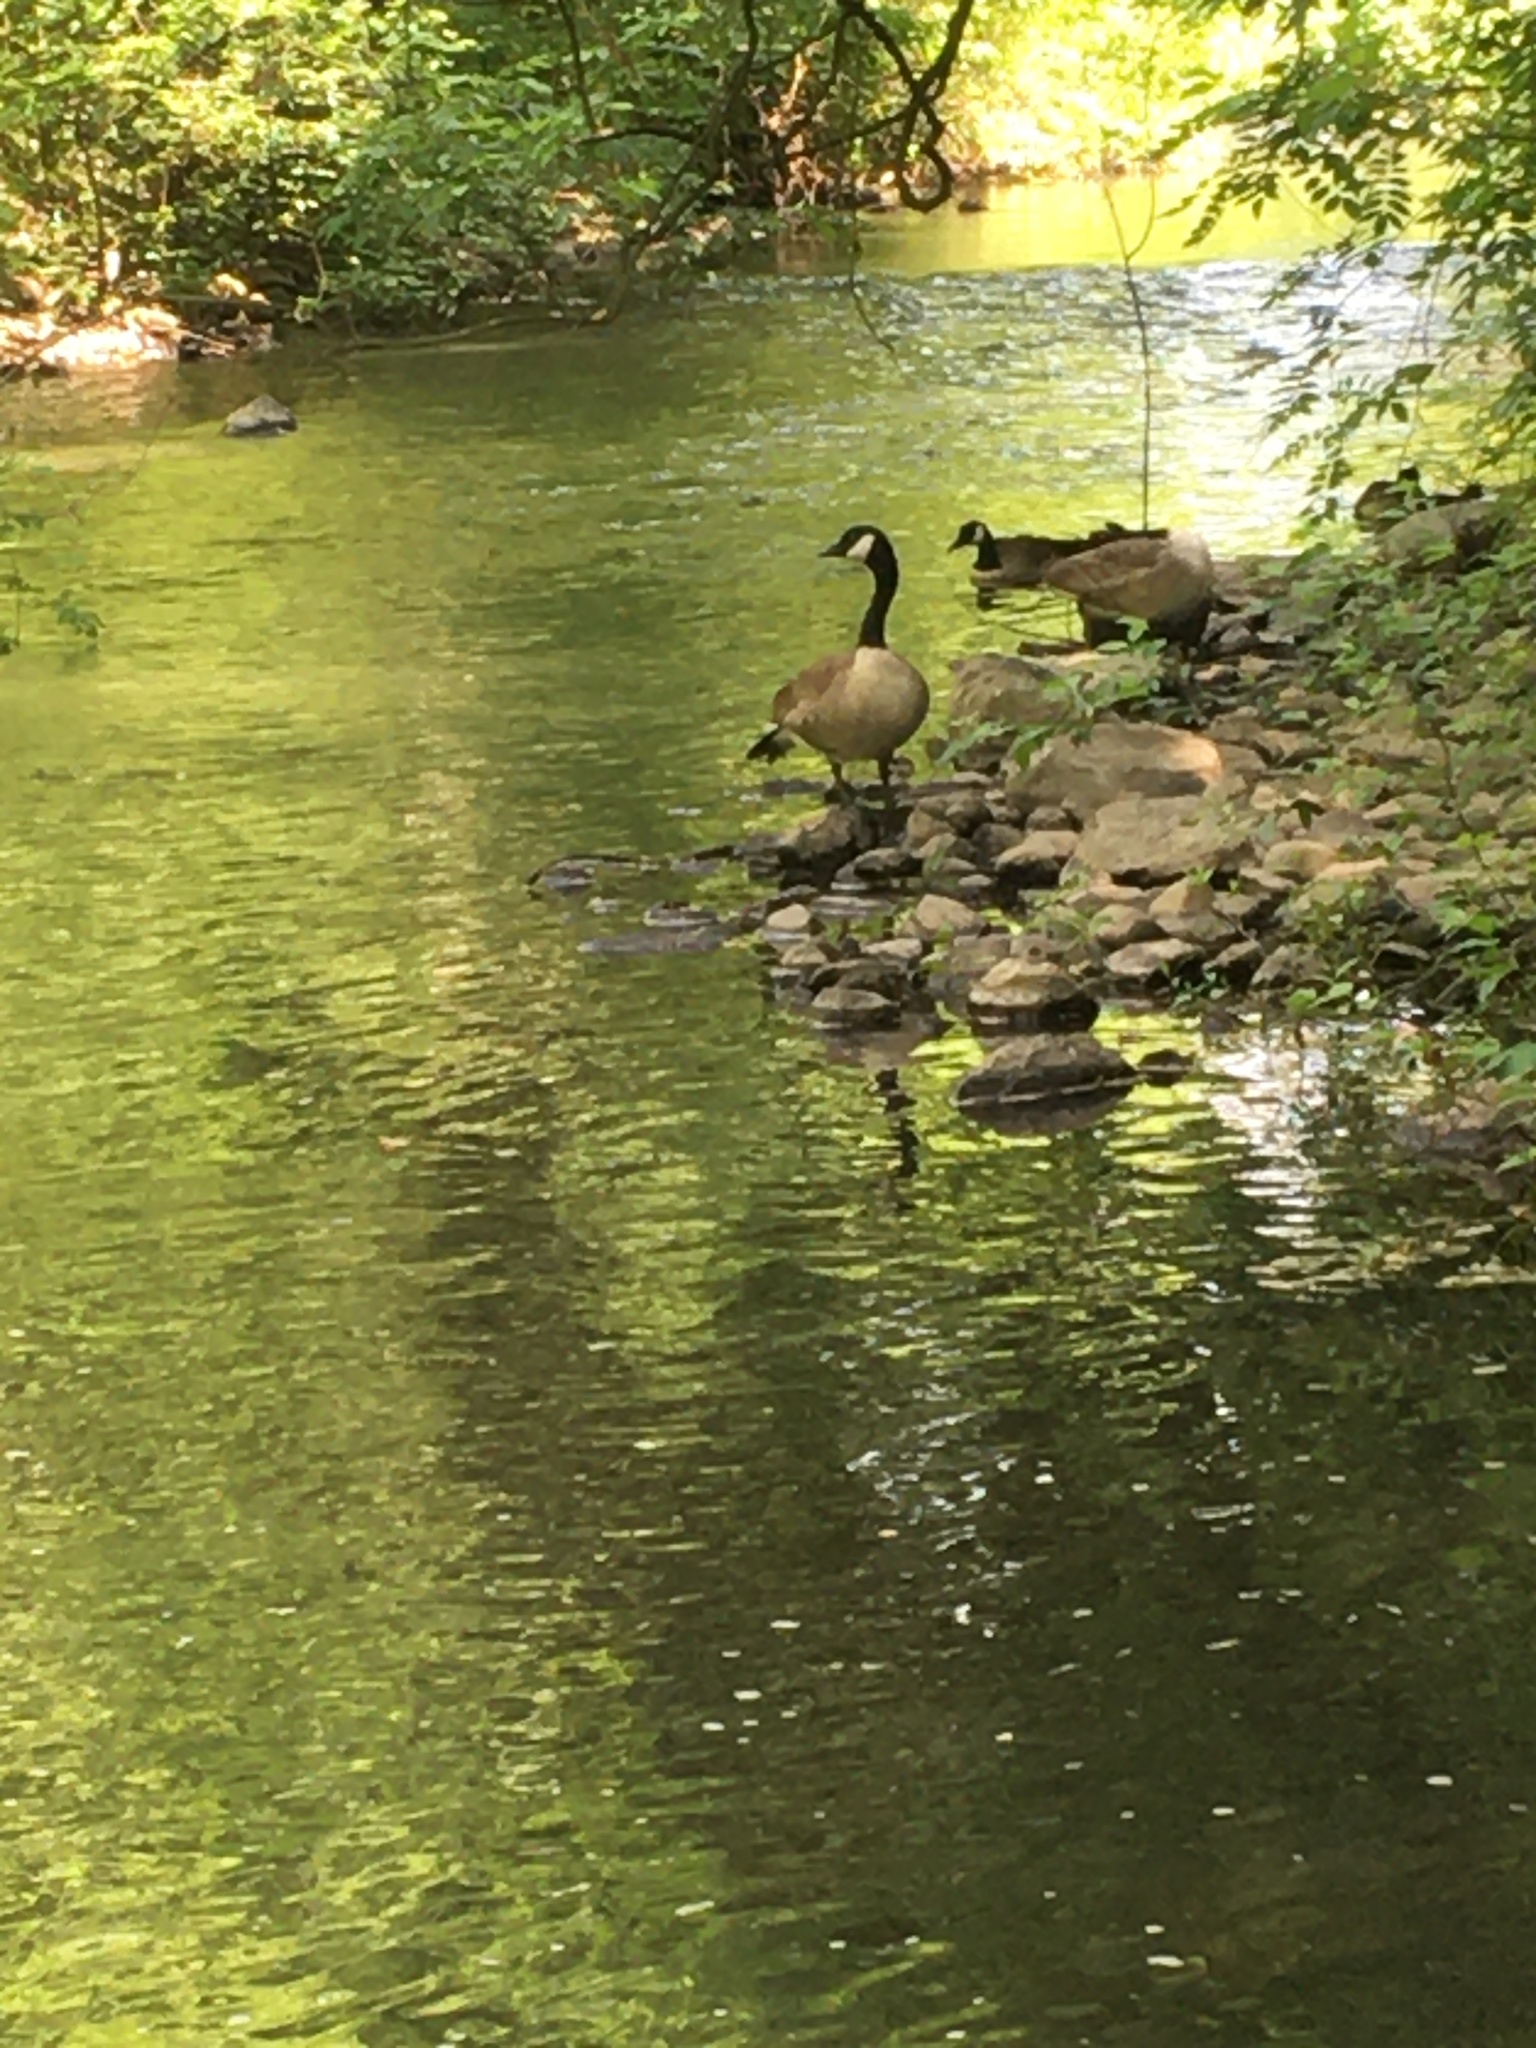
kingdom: Animalia
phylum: Chordata
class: Aves
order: Anseriformes
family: Anatidae
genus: Branta
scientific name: Branta canadensis
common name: Canada goose
